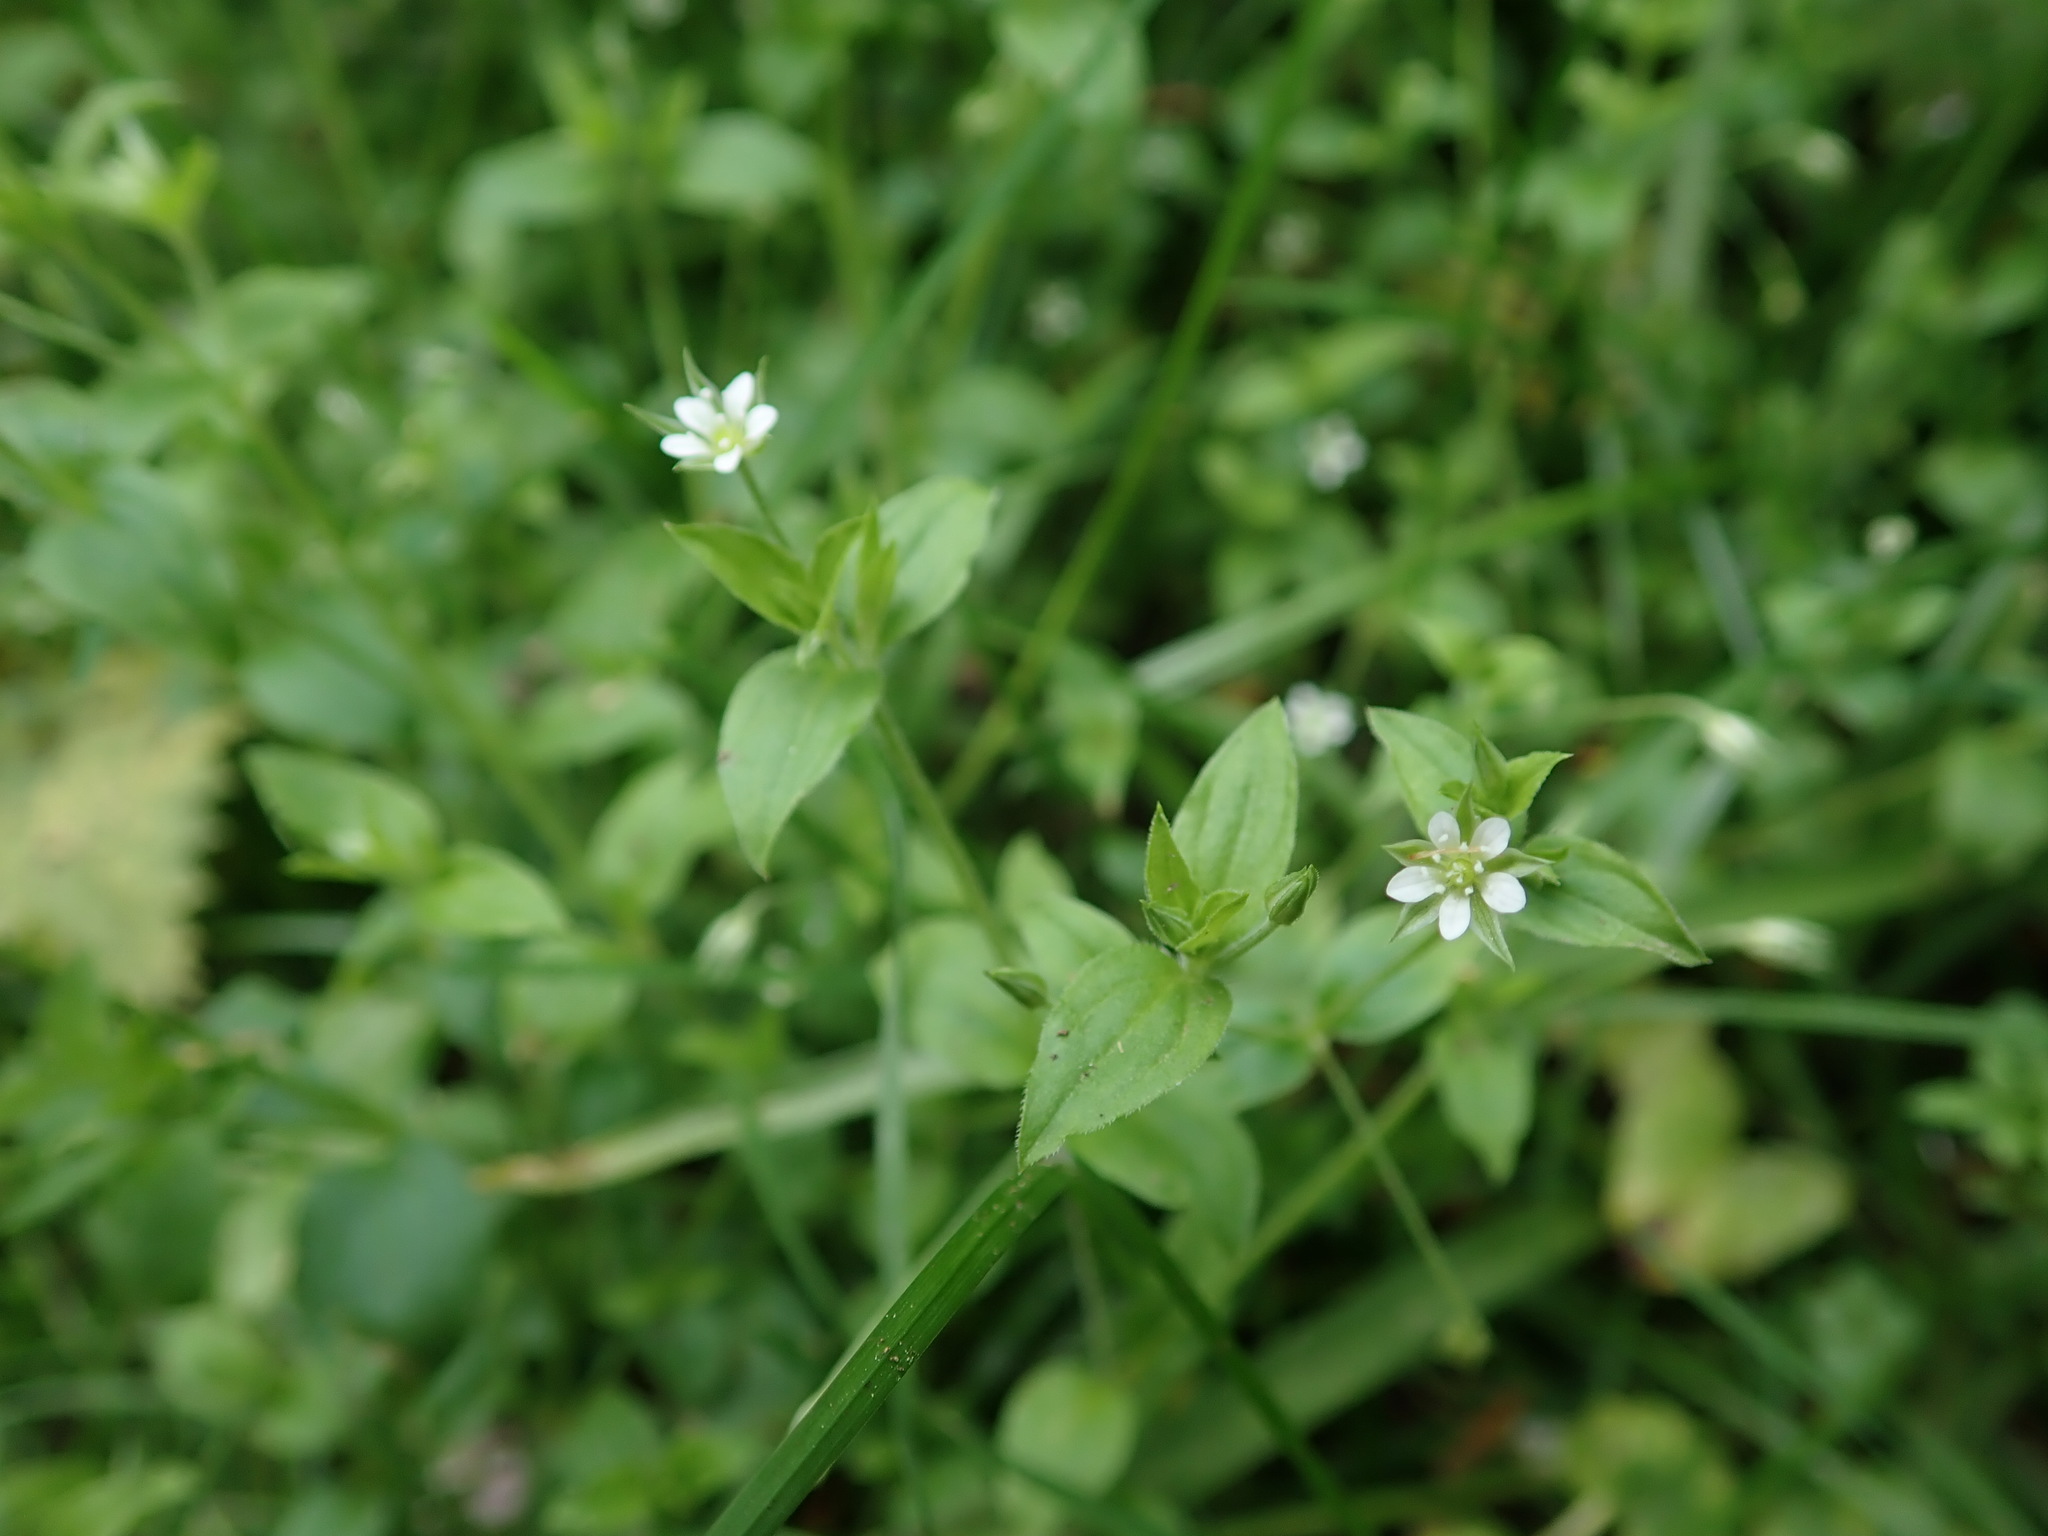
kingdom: Plantae
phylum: Tracheophyta
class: Magnoliopsida
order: Caryophyllales
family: Caryophyllaceae
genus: Moehringia
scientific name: Moehringia trinervia
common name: Three-nerved sandwort
